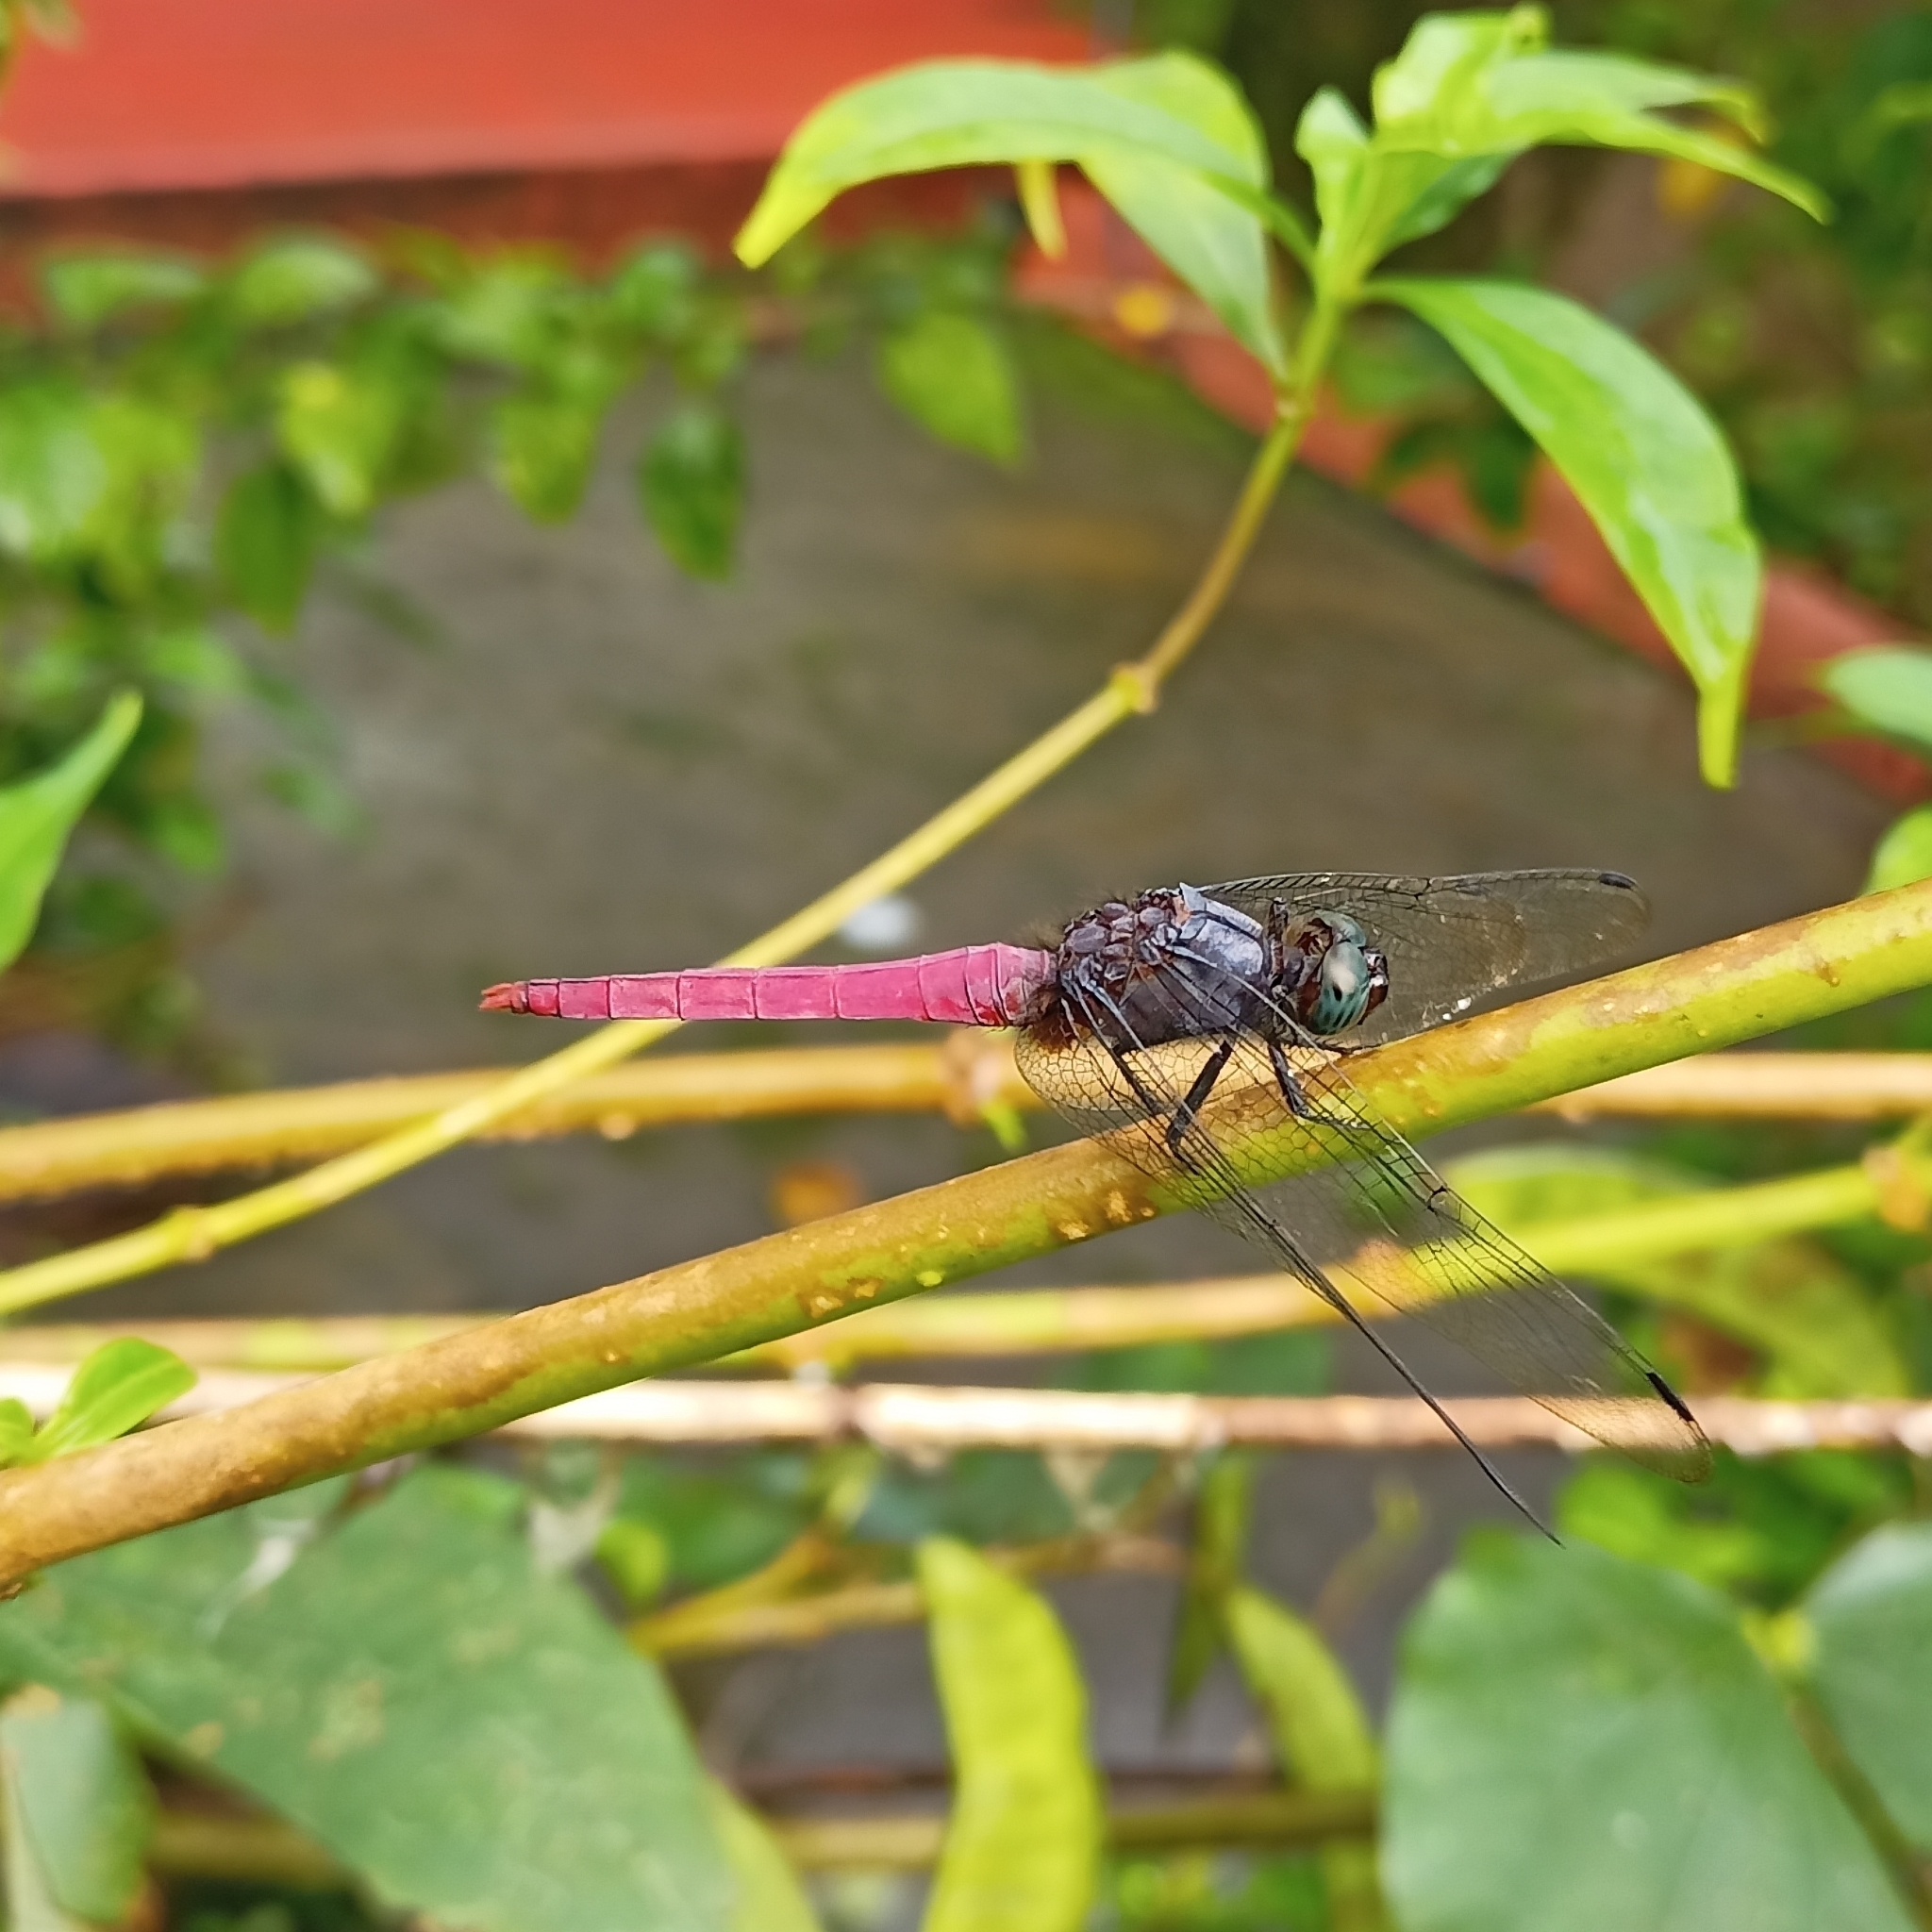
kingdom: Animalia
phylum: Arthropoda
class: Insecta
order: Odonata
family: Libellulidae
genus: Orthetrum
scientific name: Orthetrum pruinosum
